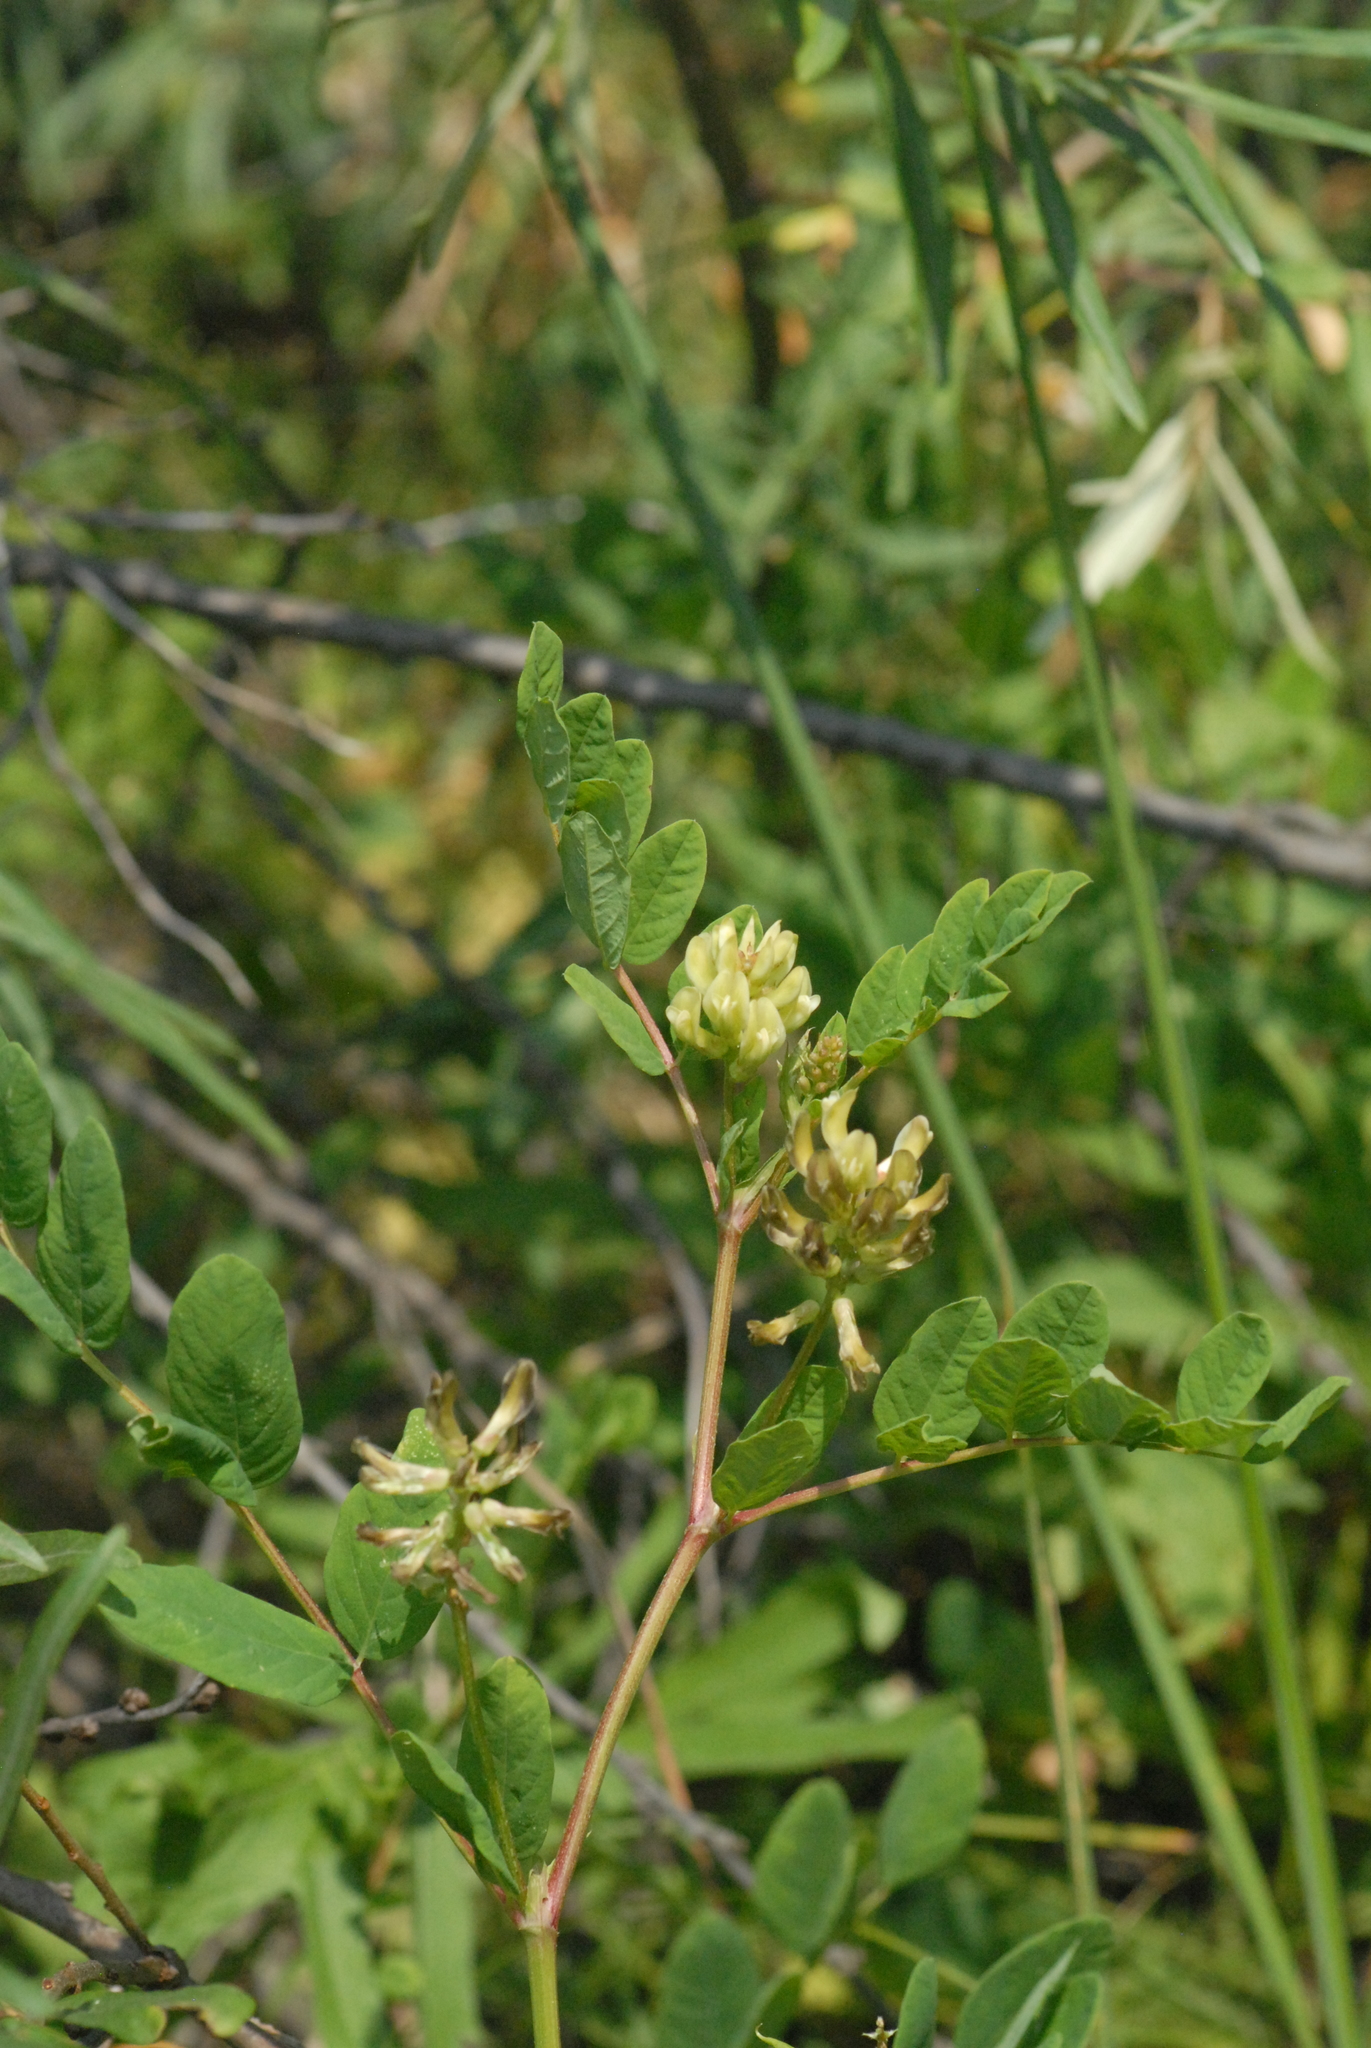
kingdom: Plantae
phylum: Tracheophyta
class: Magnoliopsida
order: Fabales
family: Fabaceae
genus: Astragalus
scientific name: Astragalus glycyphyllos
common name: Wild liquorice
